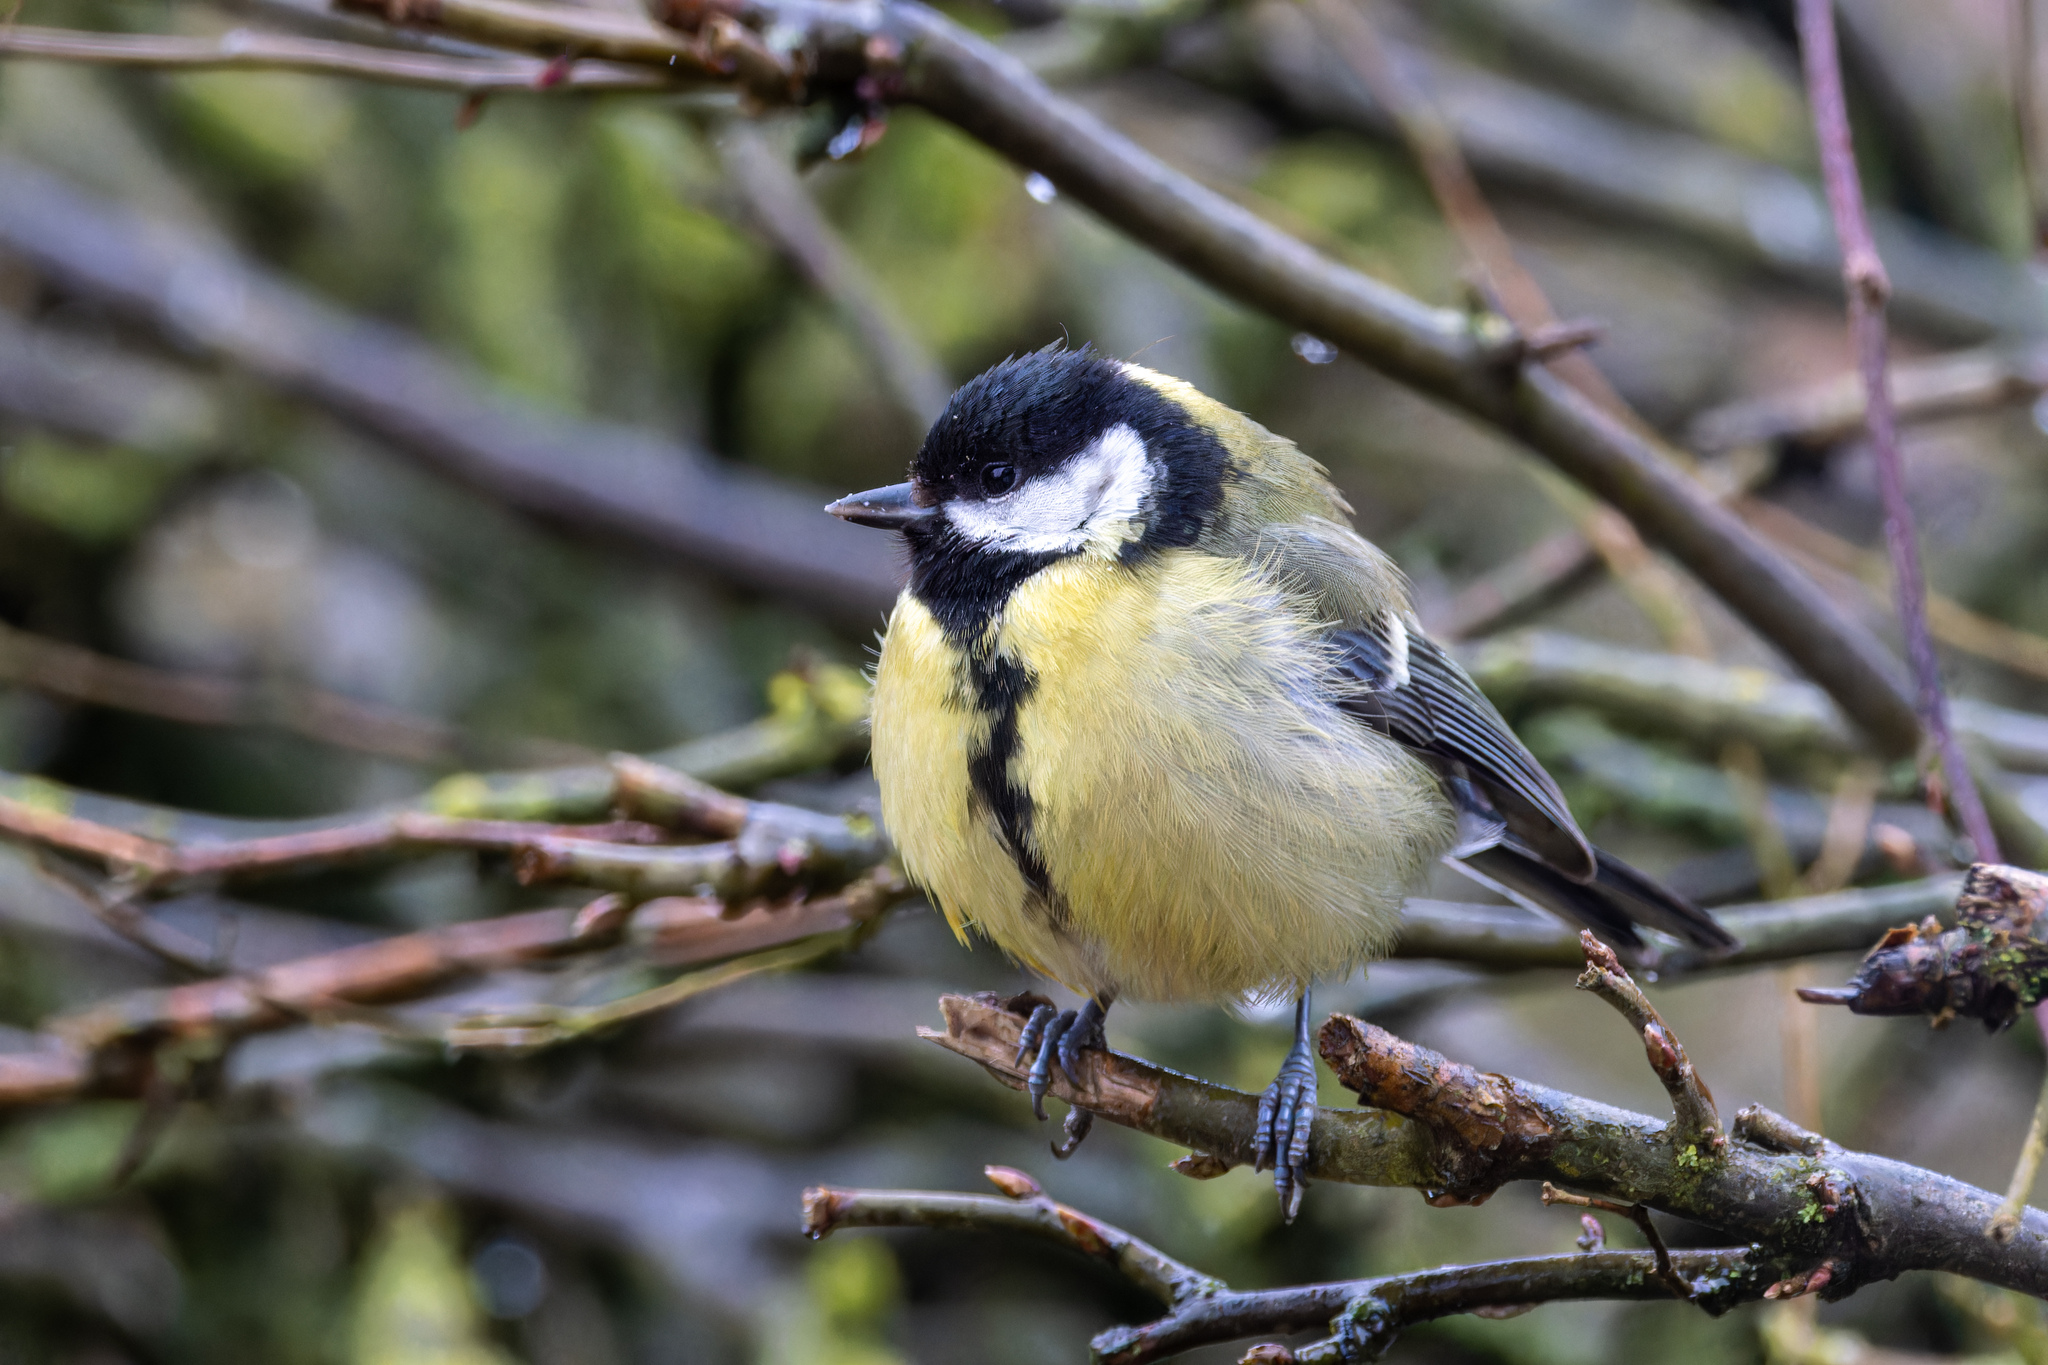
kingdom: Animalia
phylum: Chordata
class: Aves
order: Passeriformes
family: Paridae
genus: Parus
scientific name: Parus major
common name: Great tit
